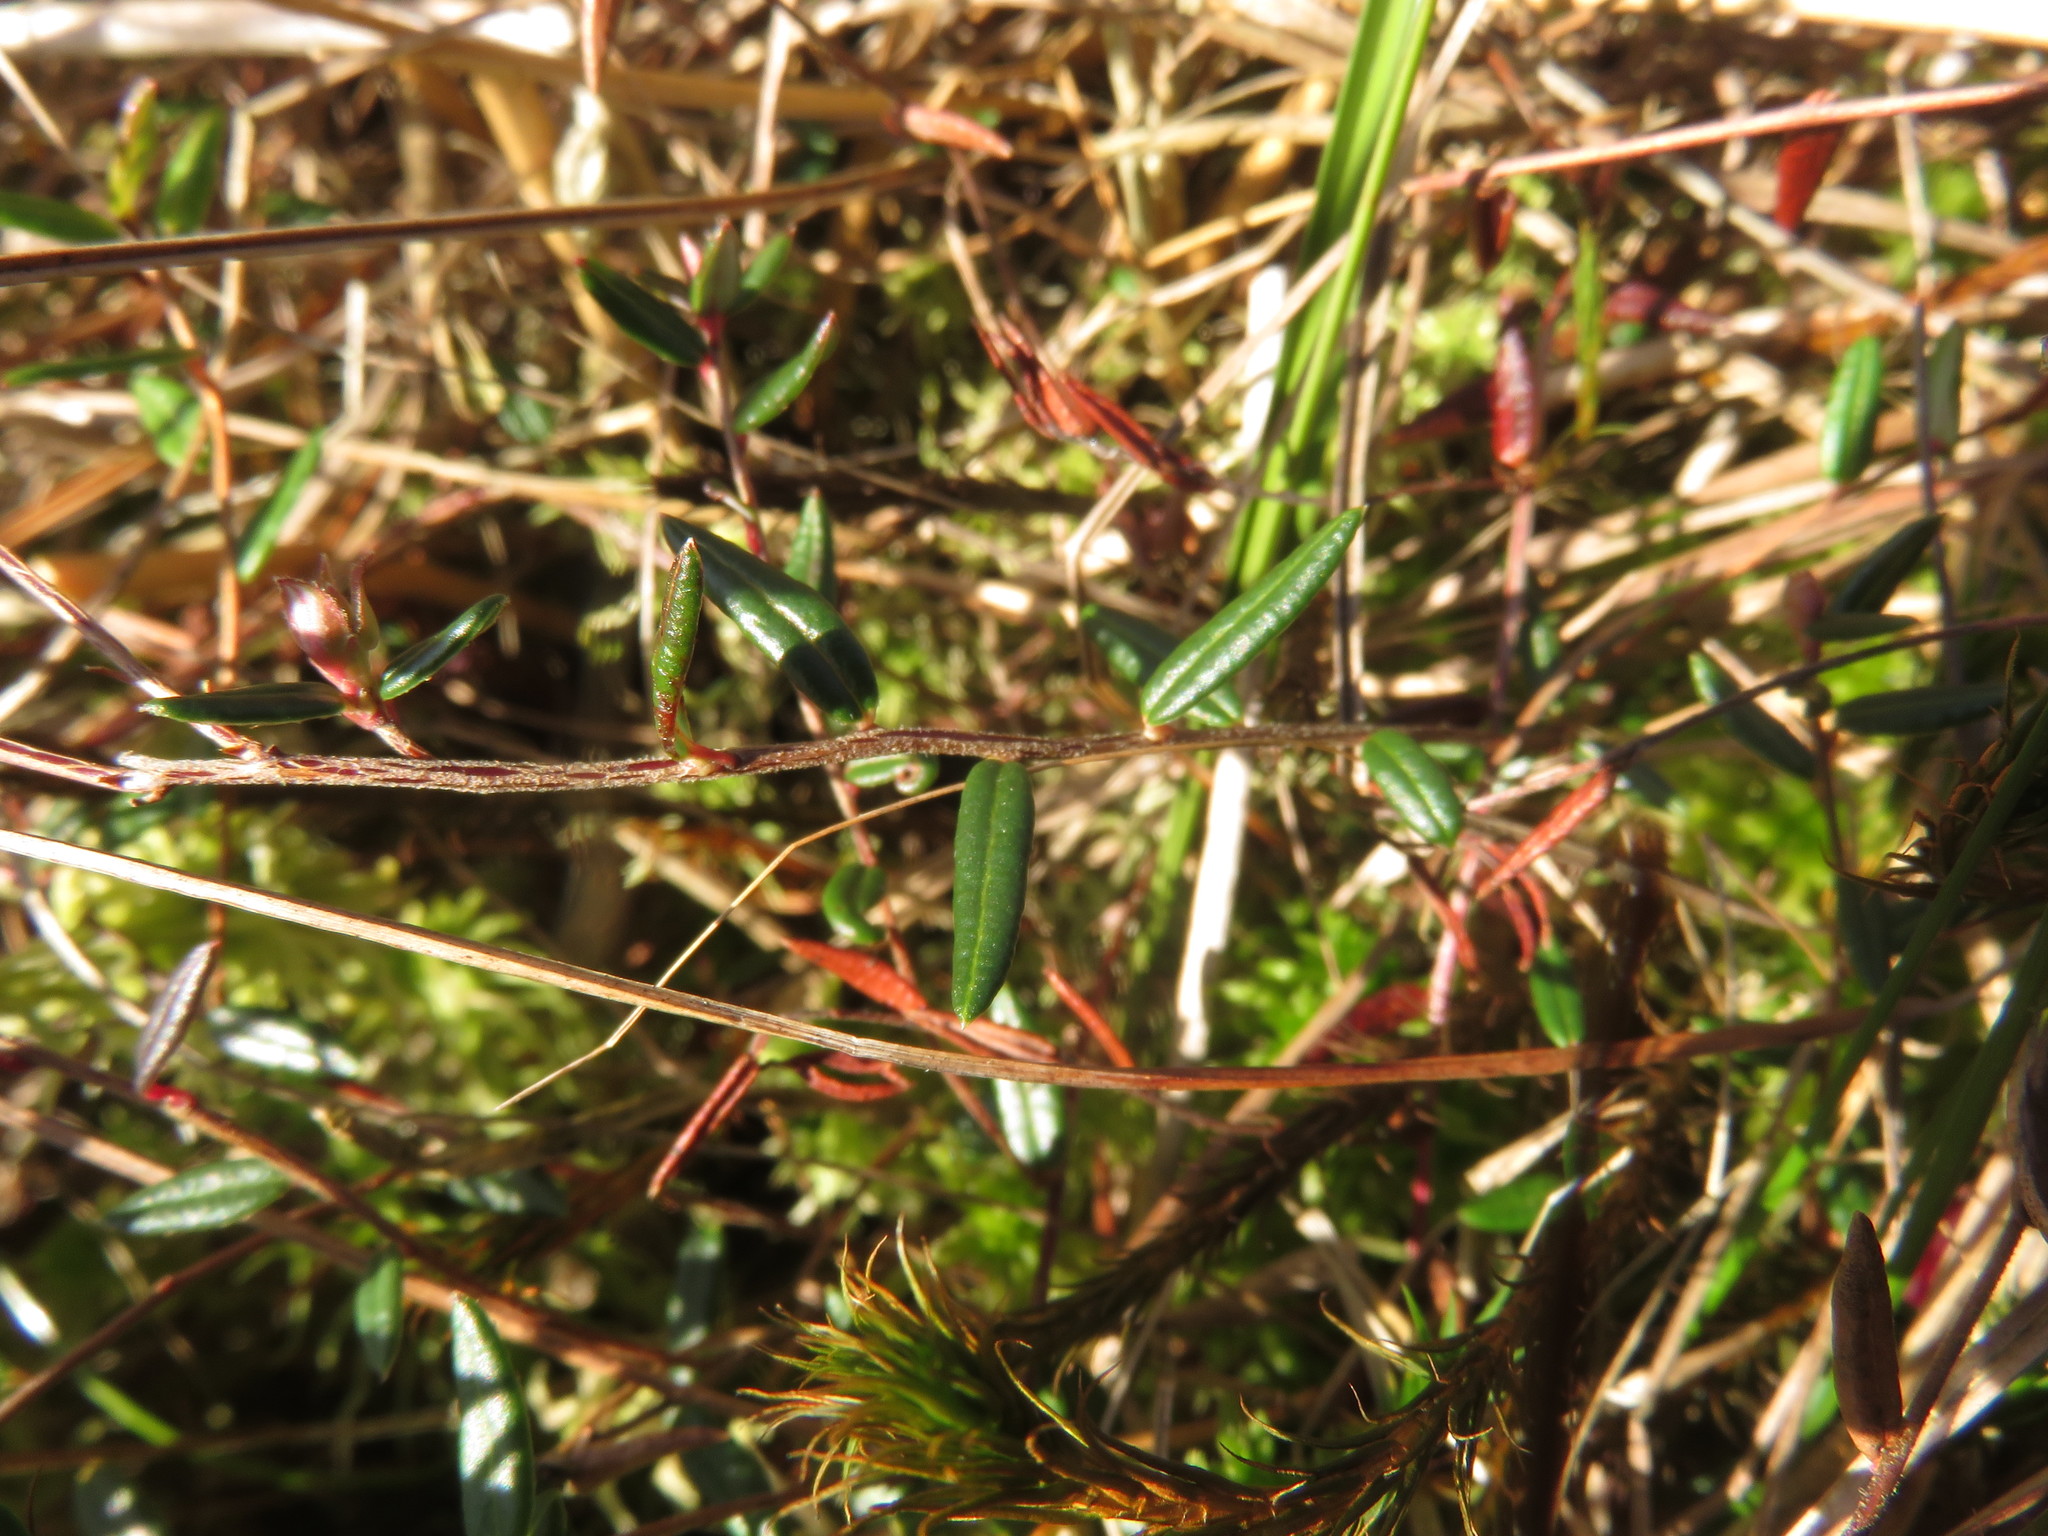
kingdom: Plantae
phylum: Tracheophyta
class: Magnoliopsida
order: Ericales
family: Ericaceae
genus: Vaccinium
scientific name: Vaccinium oxycoccos
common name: Cranberry
